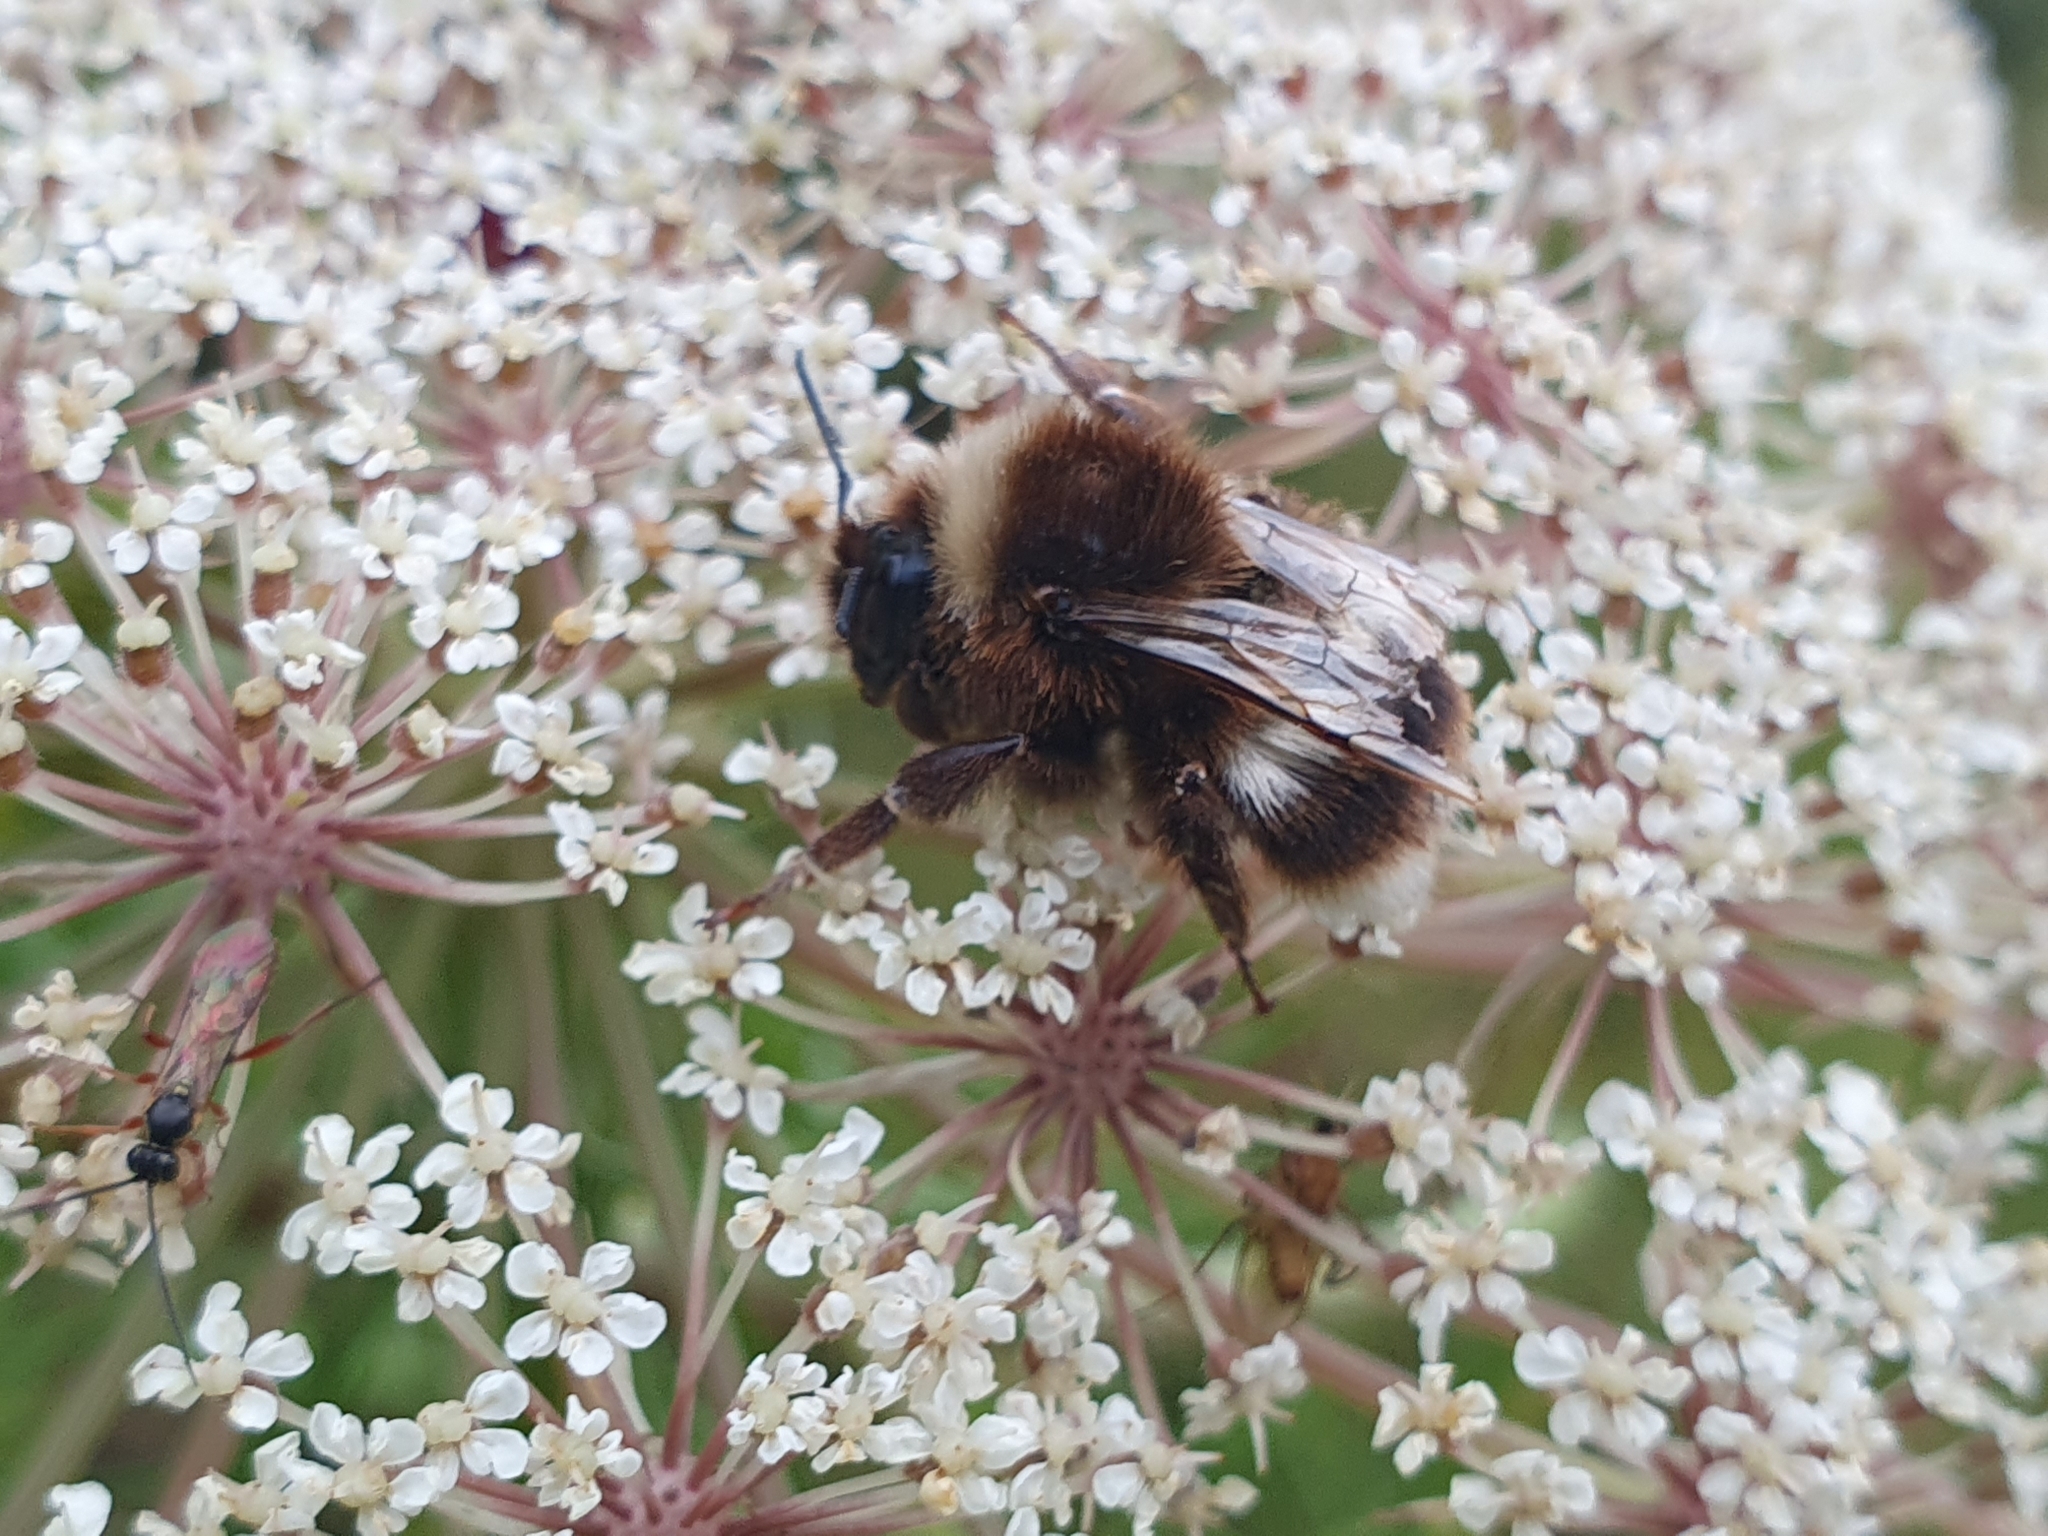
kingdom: Animalia
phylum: Arthropoda
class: Insecta
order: Hymenoptera
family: Apidae
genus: Bombus
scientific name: Bombus terrestris
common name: Buff-tailed bumblebee
